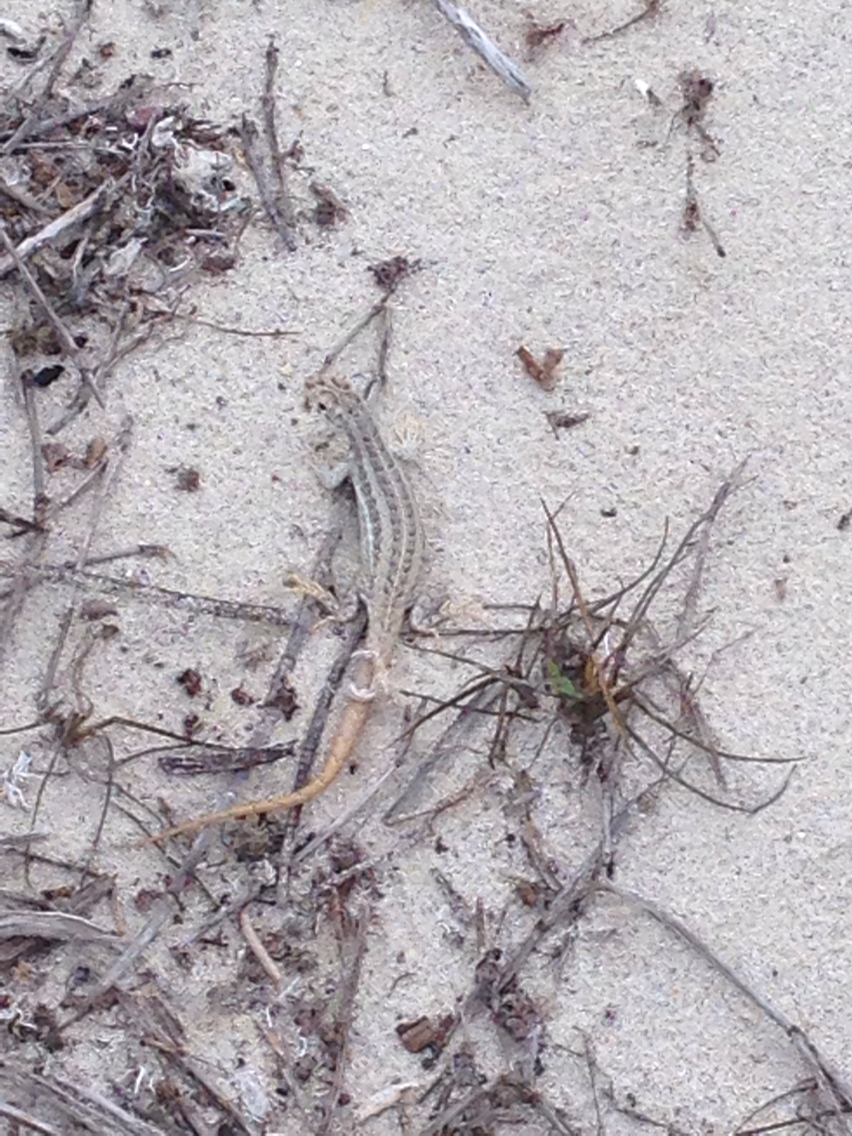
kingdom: Animalia
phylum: Chordata
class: Squamata
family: Leiocephalidae
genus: Leiocephalus
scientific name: Leiocephalus raviceps
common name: Mountain curlytail lizard
